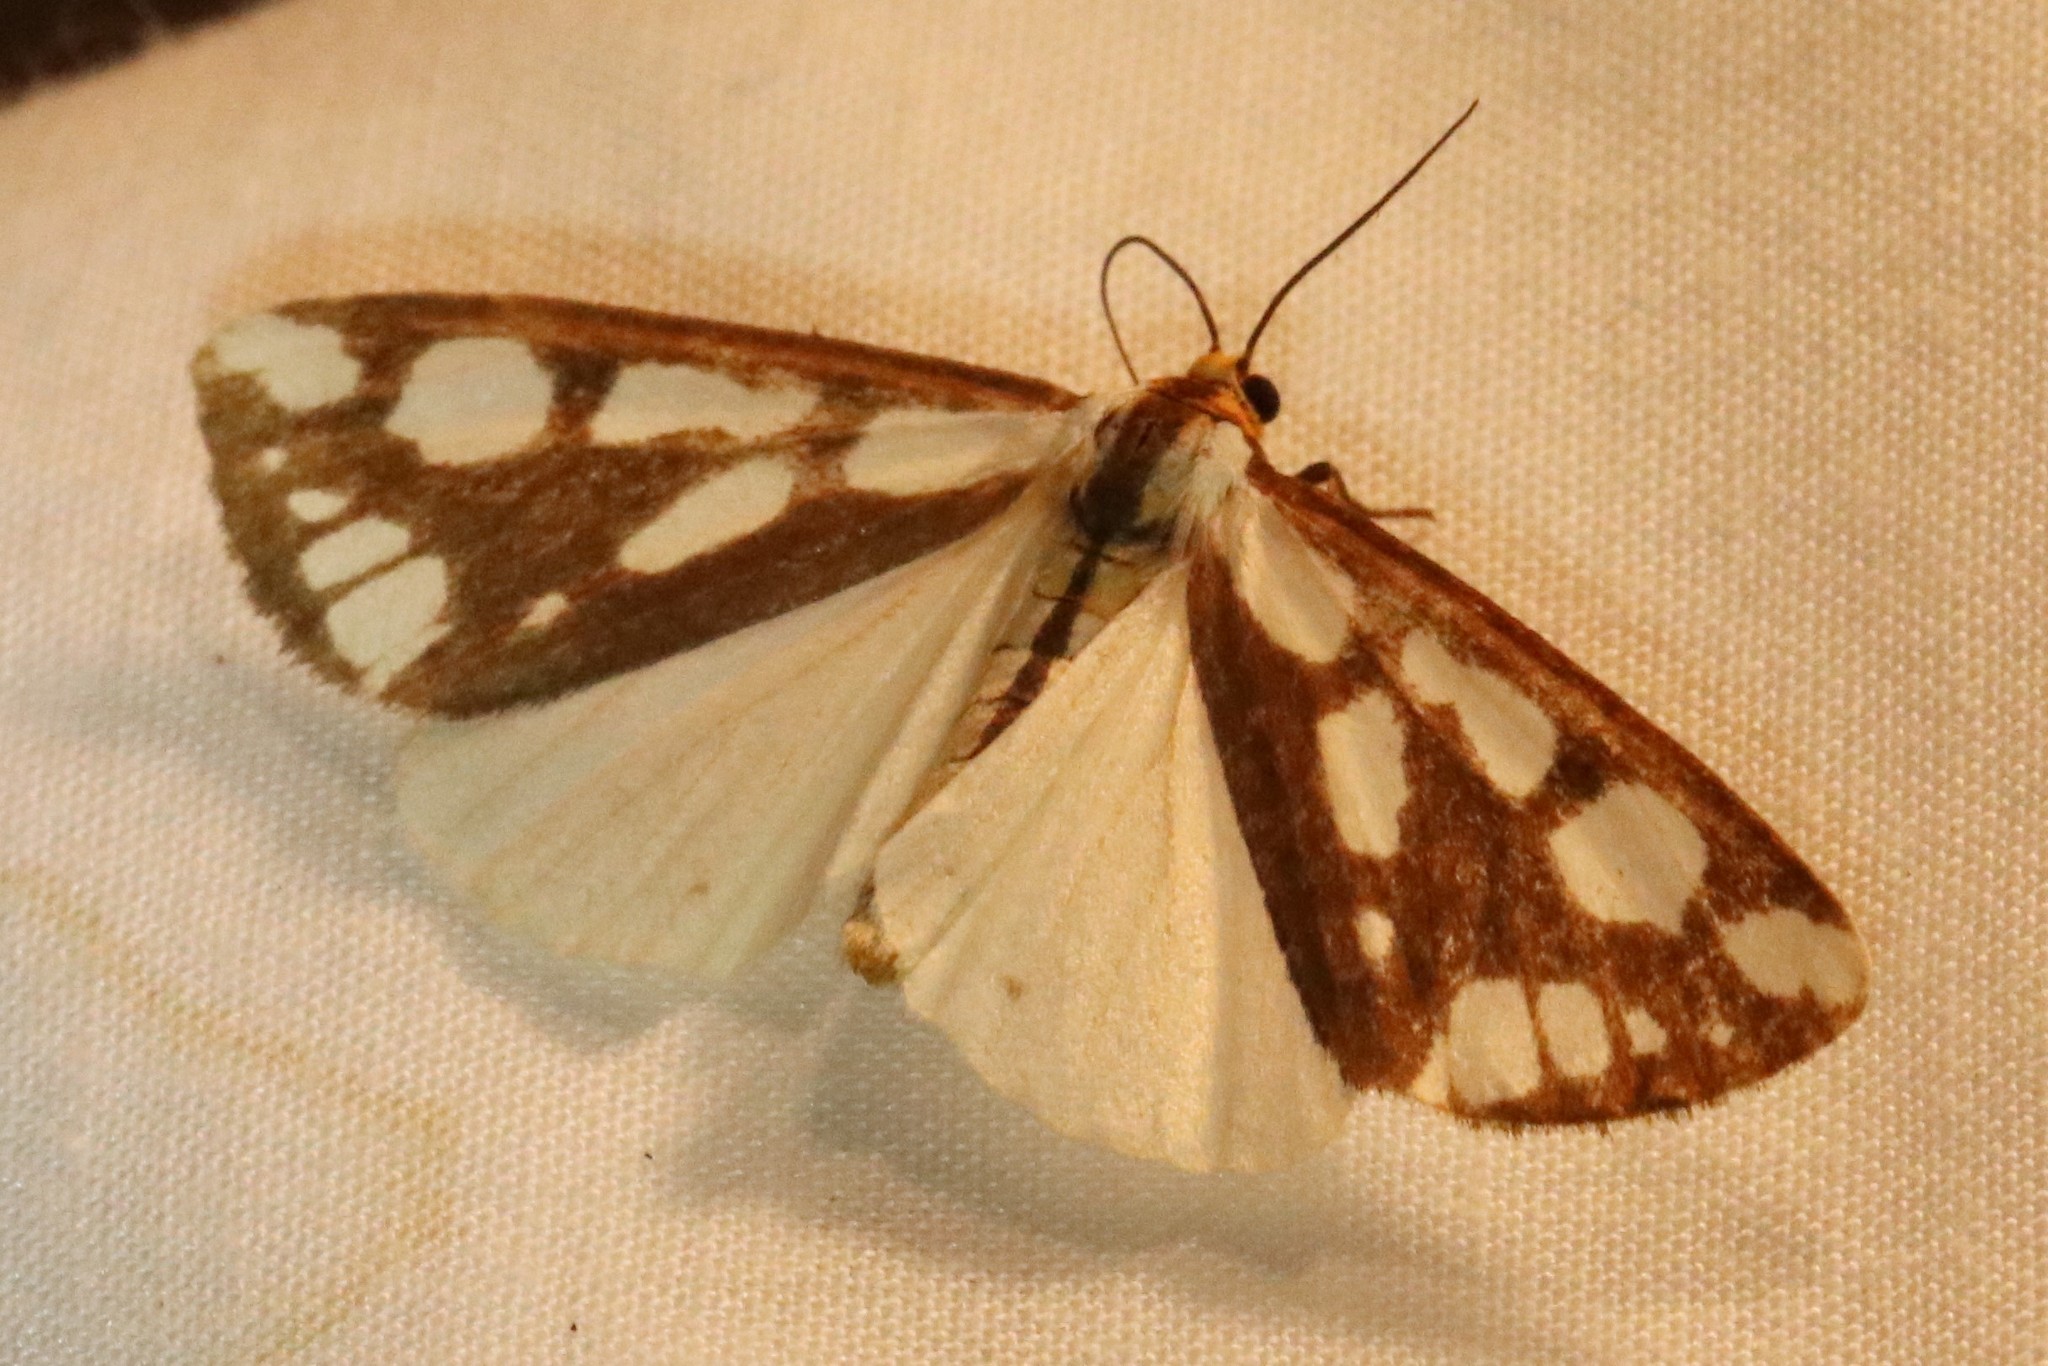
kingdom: Animalia
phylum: Arthropoda
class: Insecta
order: Lepidoptera
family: Erebidae
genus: Haploa
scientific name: Haploa confusa
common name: Confused haploa moth
